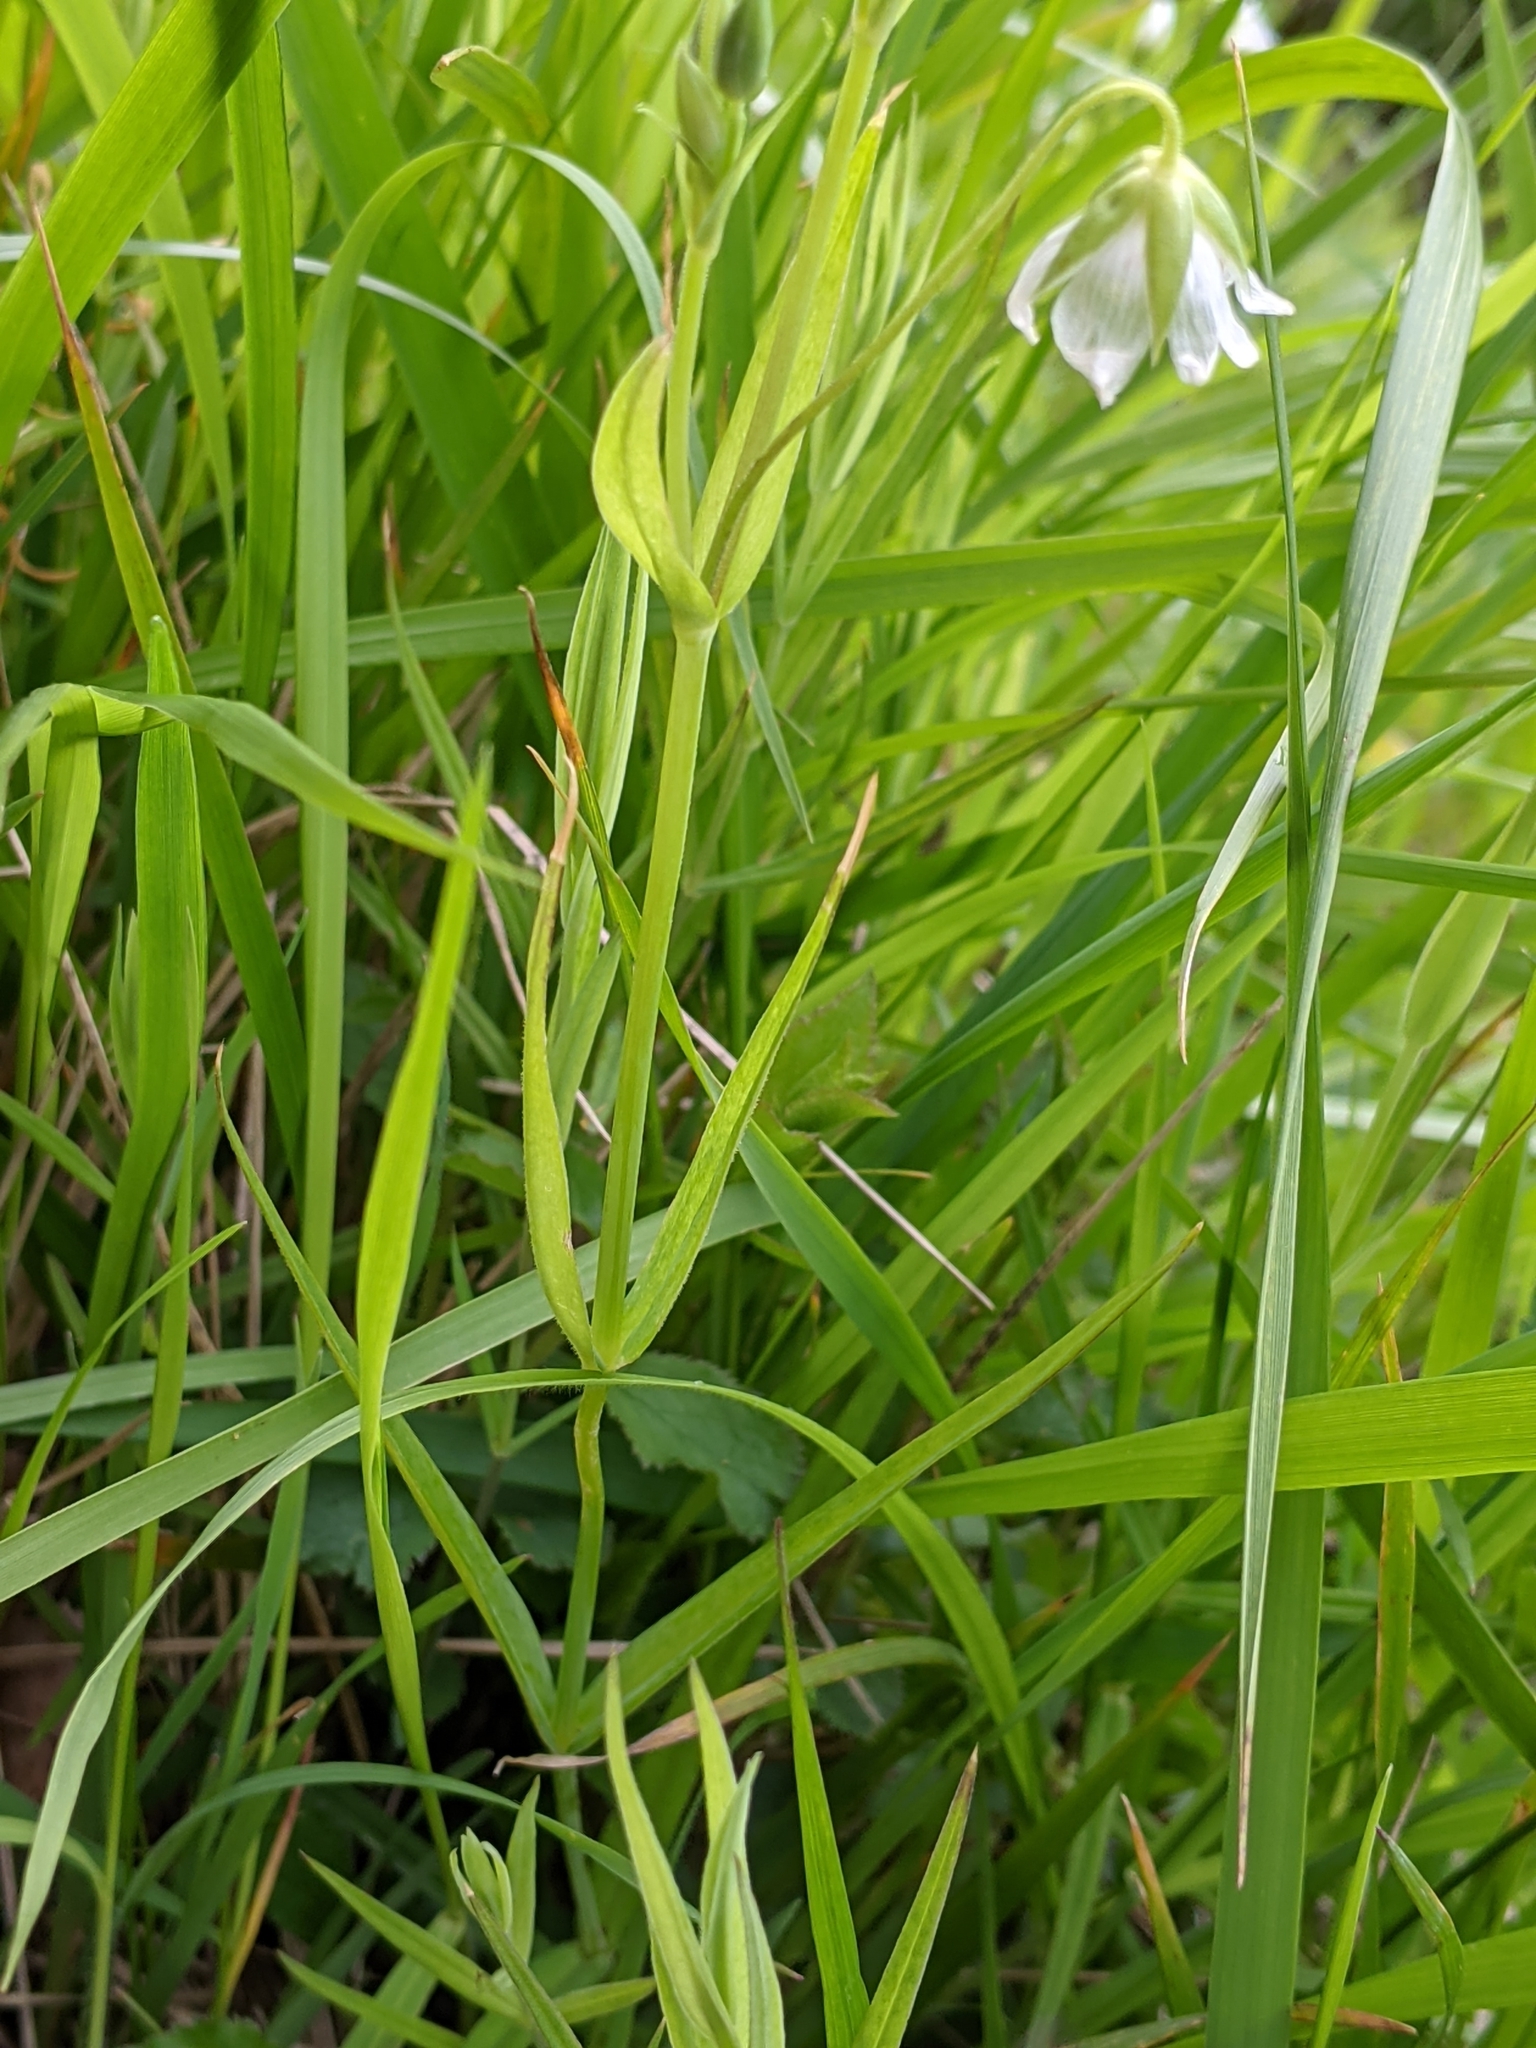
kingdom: Plantae
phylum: Tracheophyta
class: Magnoliopsida
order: Caryophyllales
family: Caryophyllaceae
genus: Rabelera
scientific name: Rabelera holostea
